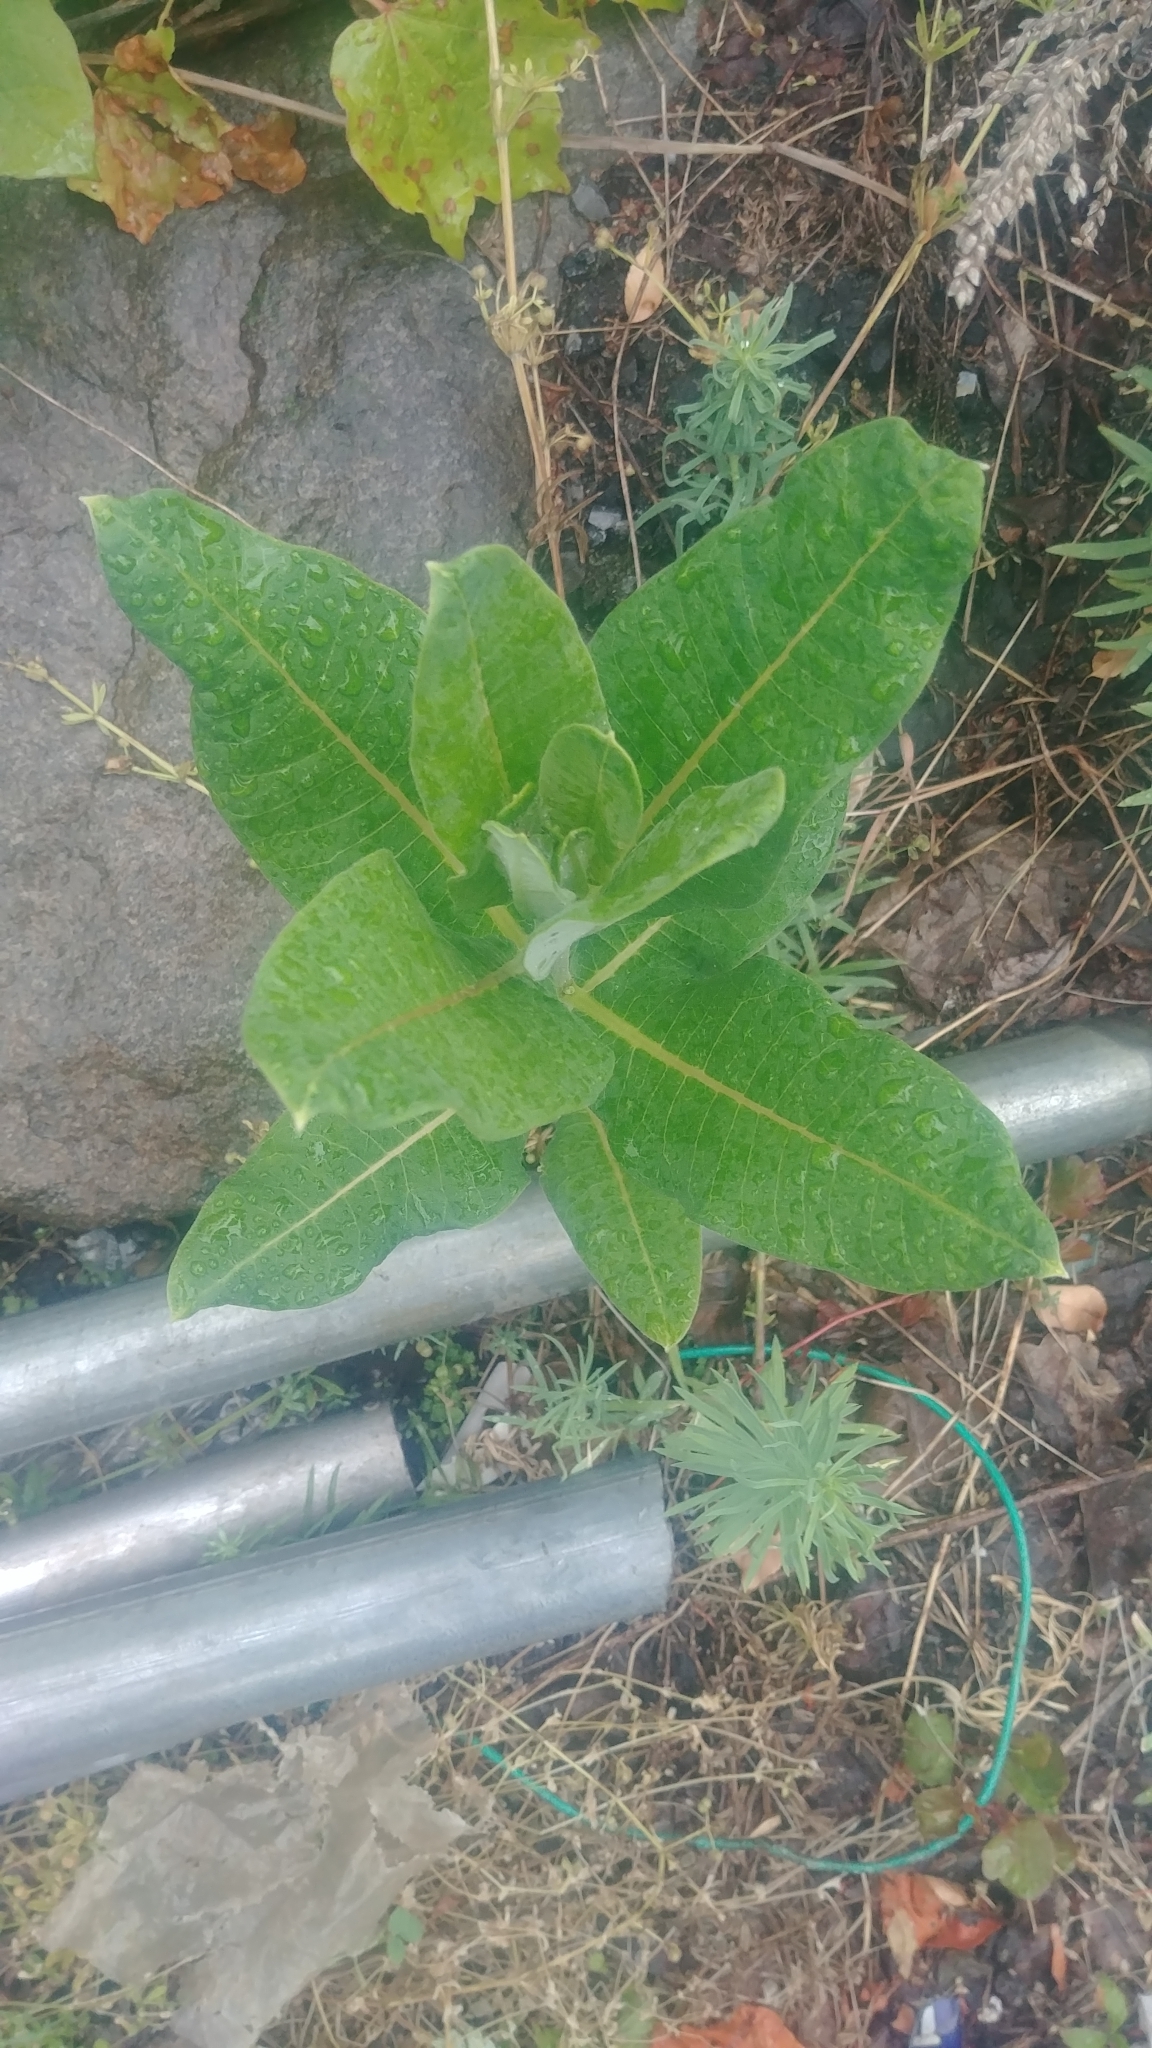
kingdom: Plantae
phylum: Tracheophyta
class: Magnoliopsida
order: Gentianales
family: Apocynaceae
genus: Asclepias
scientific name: Asclepias syriaca
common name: Common milkweed
